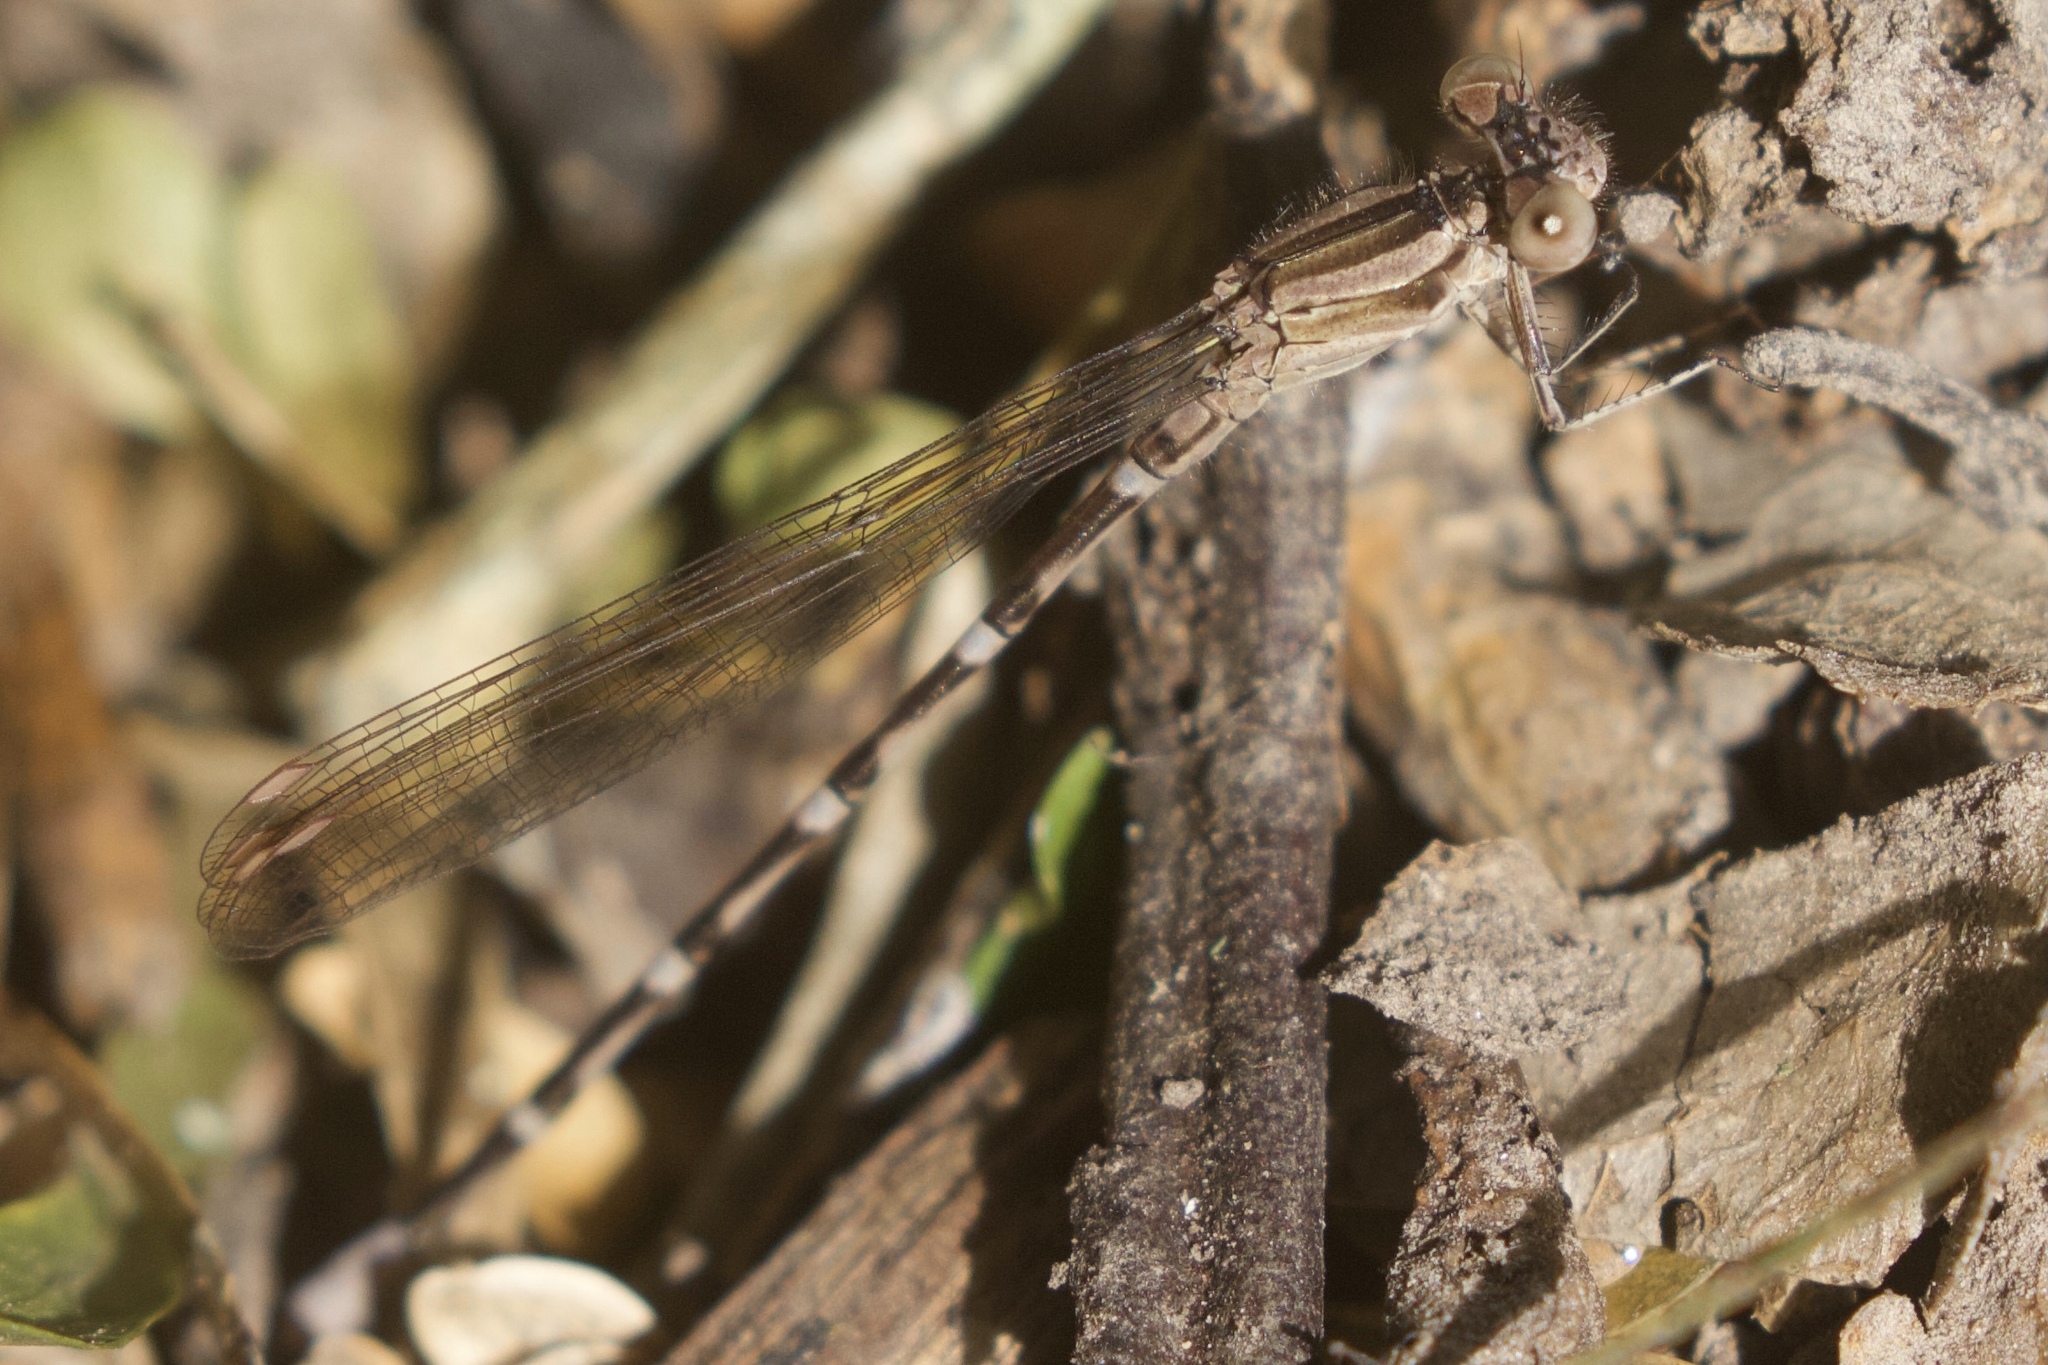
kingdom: Animalia
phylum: Arthropoda
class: Insecta
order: Odonata
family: Coenagrionidae
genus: Argia
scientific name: Argia sedula
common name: Blue-ringed dancer
